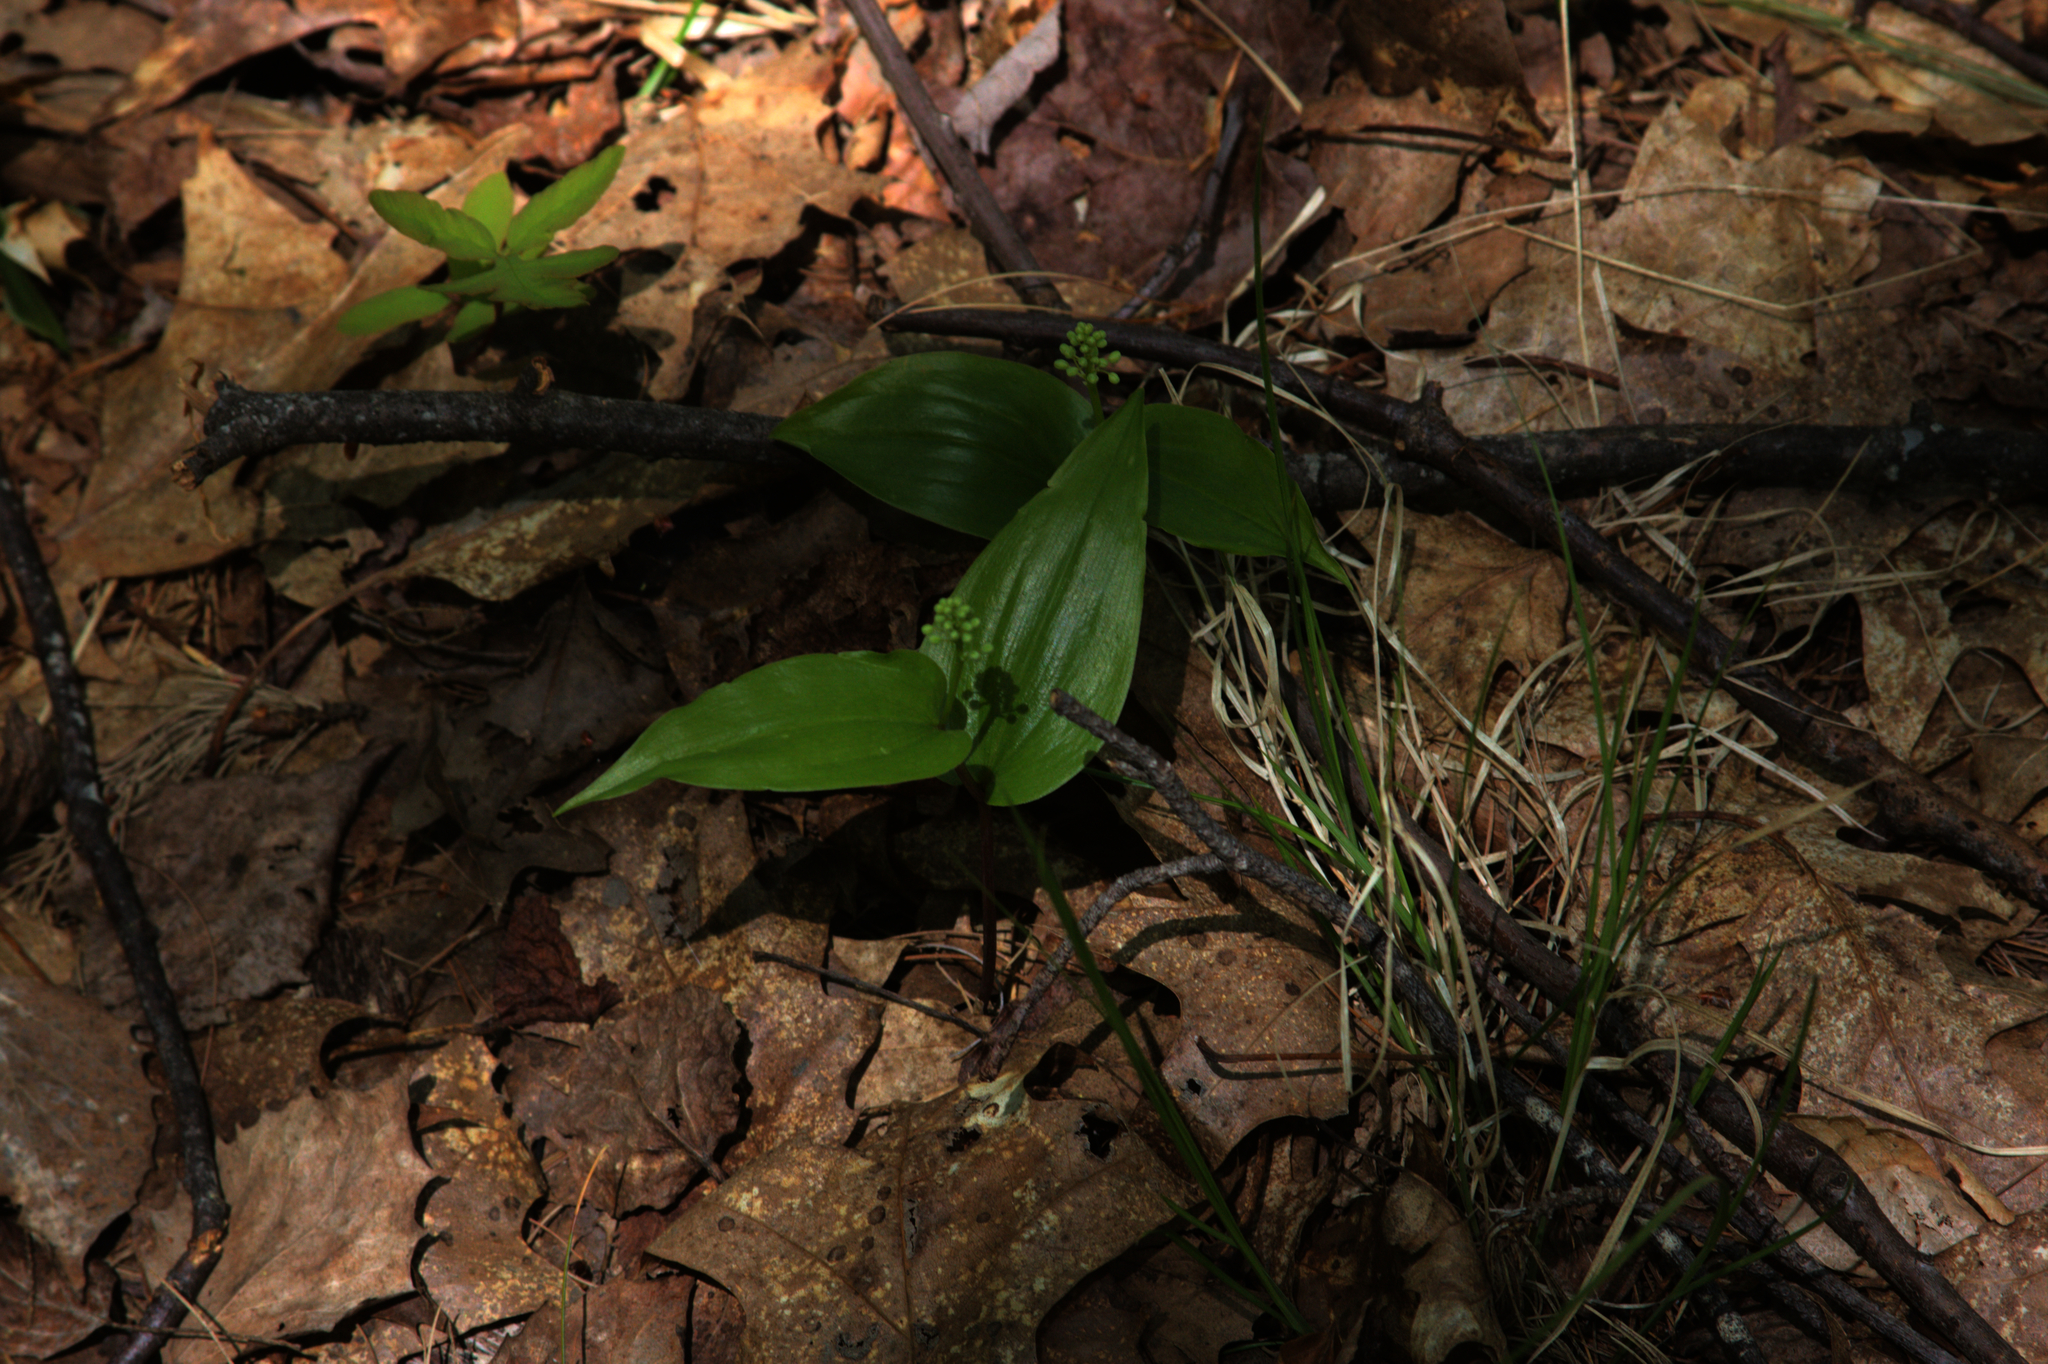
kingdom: Plantae
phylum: Tracheophyta
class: Liliopsida
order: Asparagales
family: Asparagaceae
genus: Maianthemum
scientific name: Maianthemum canadense
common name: False lily-of-the-valley
